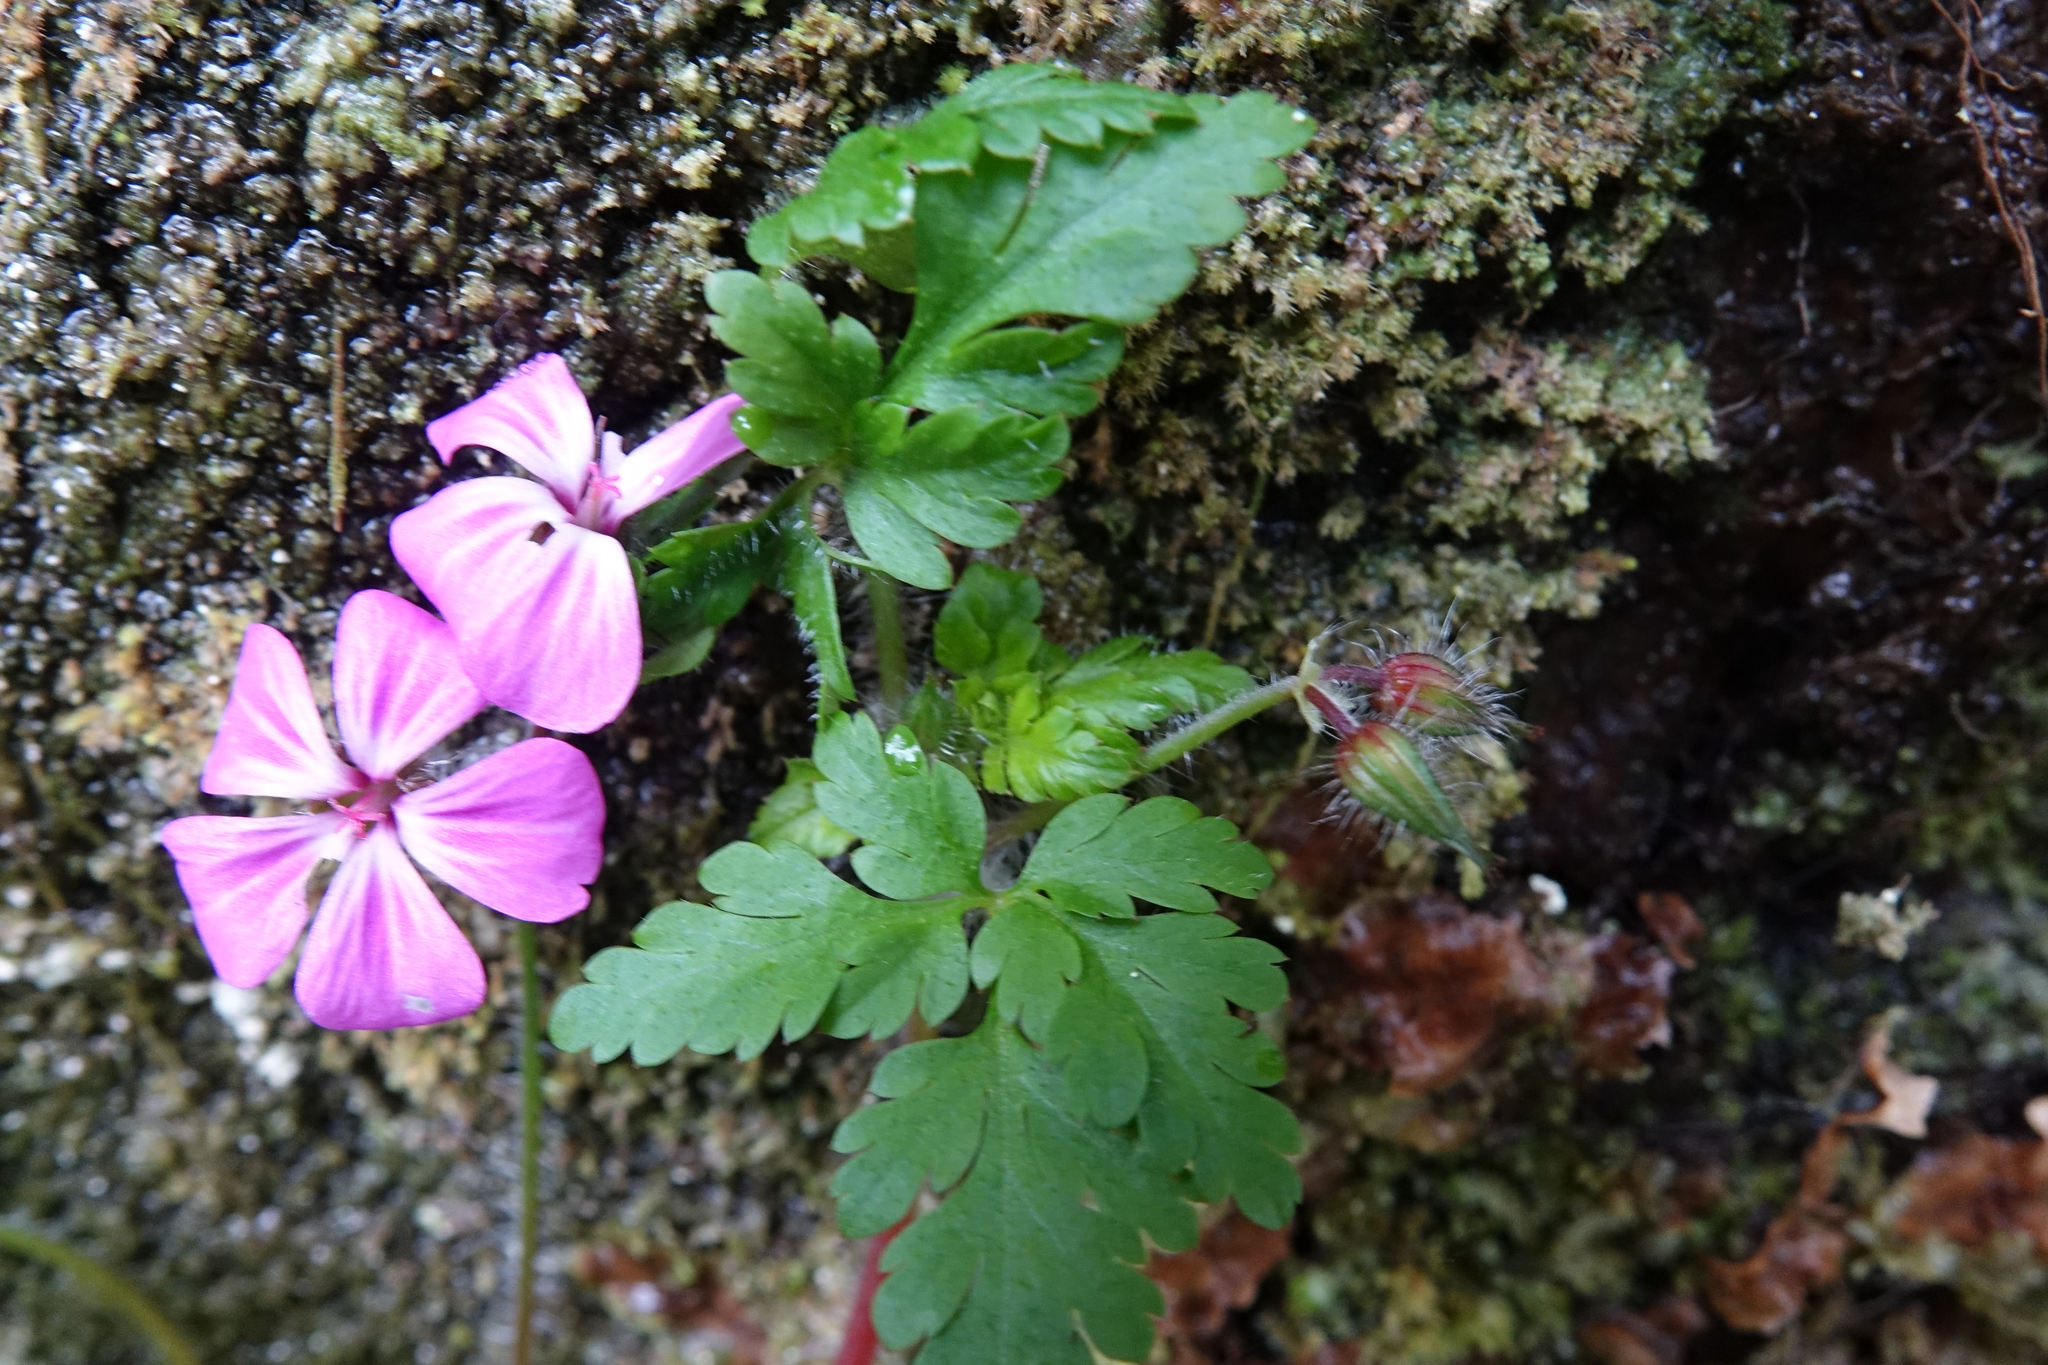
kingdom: Plantae
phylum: Tracheophyta
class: Magnoliopsida
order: Geraniales
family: Geraniaceae
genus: Geranium
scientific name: Geranium robertianum
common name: Herb-robert
